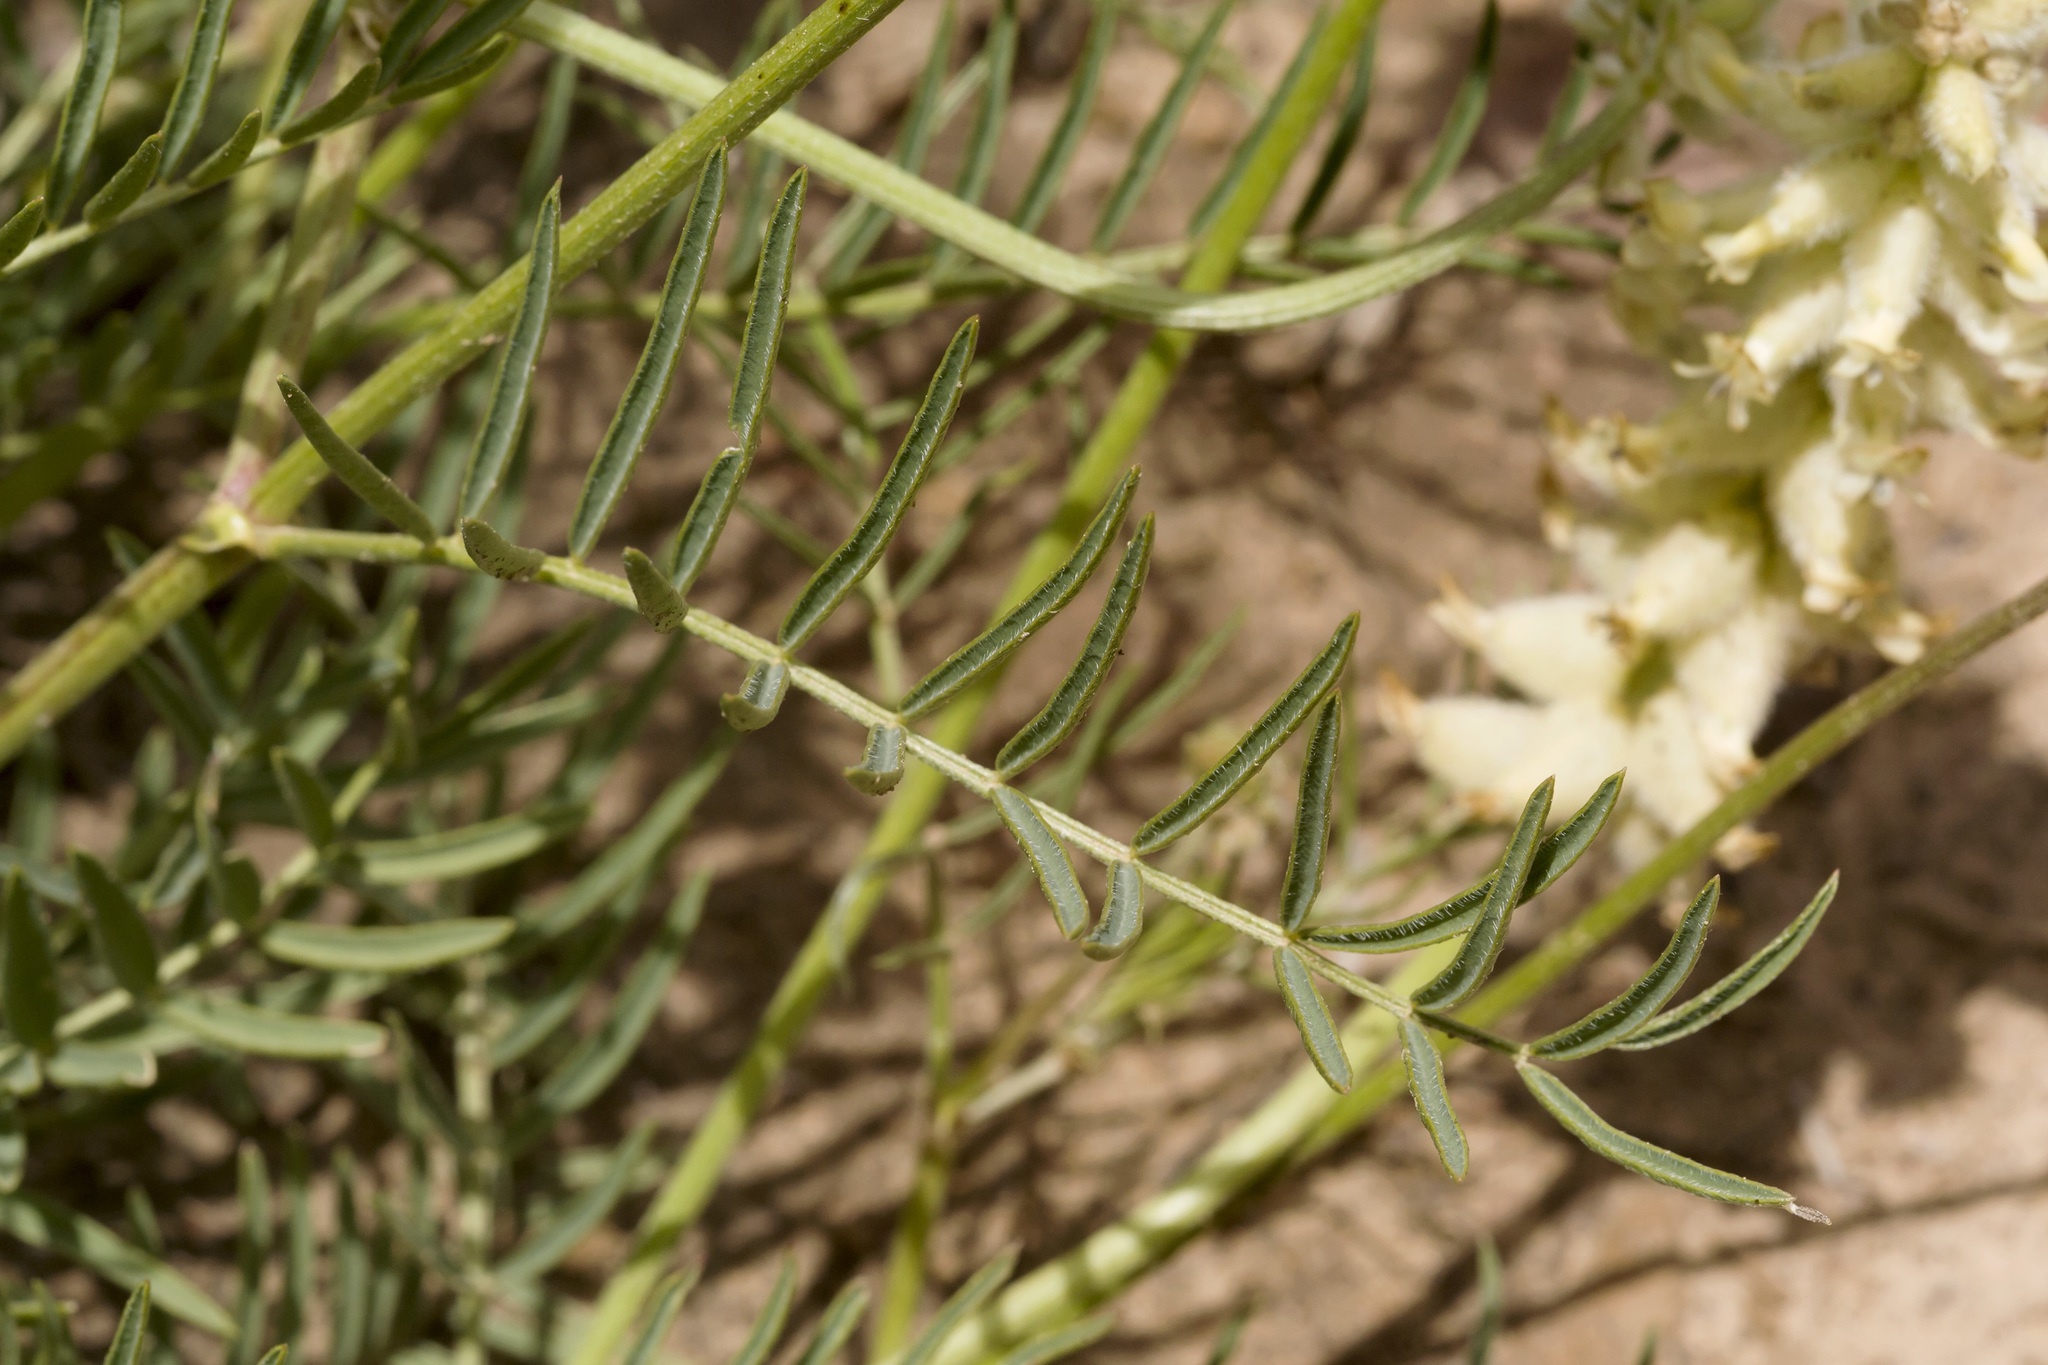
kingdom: Plantae
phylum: Tracheophyta
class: Magnoliopsida
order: Fabales
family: Fabaceae
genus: Astragalus
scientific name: Astragalus oocalycis
